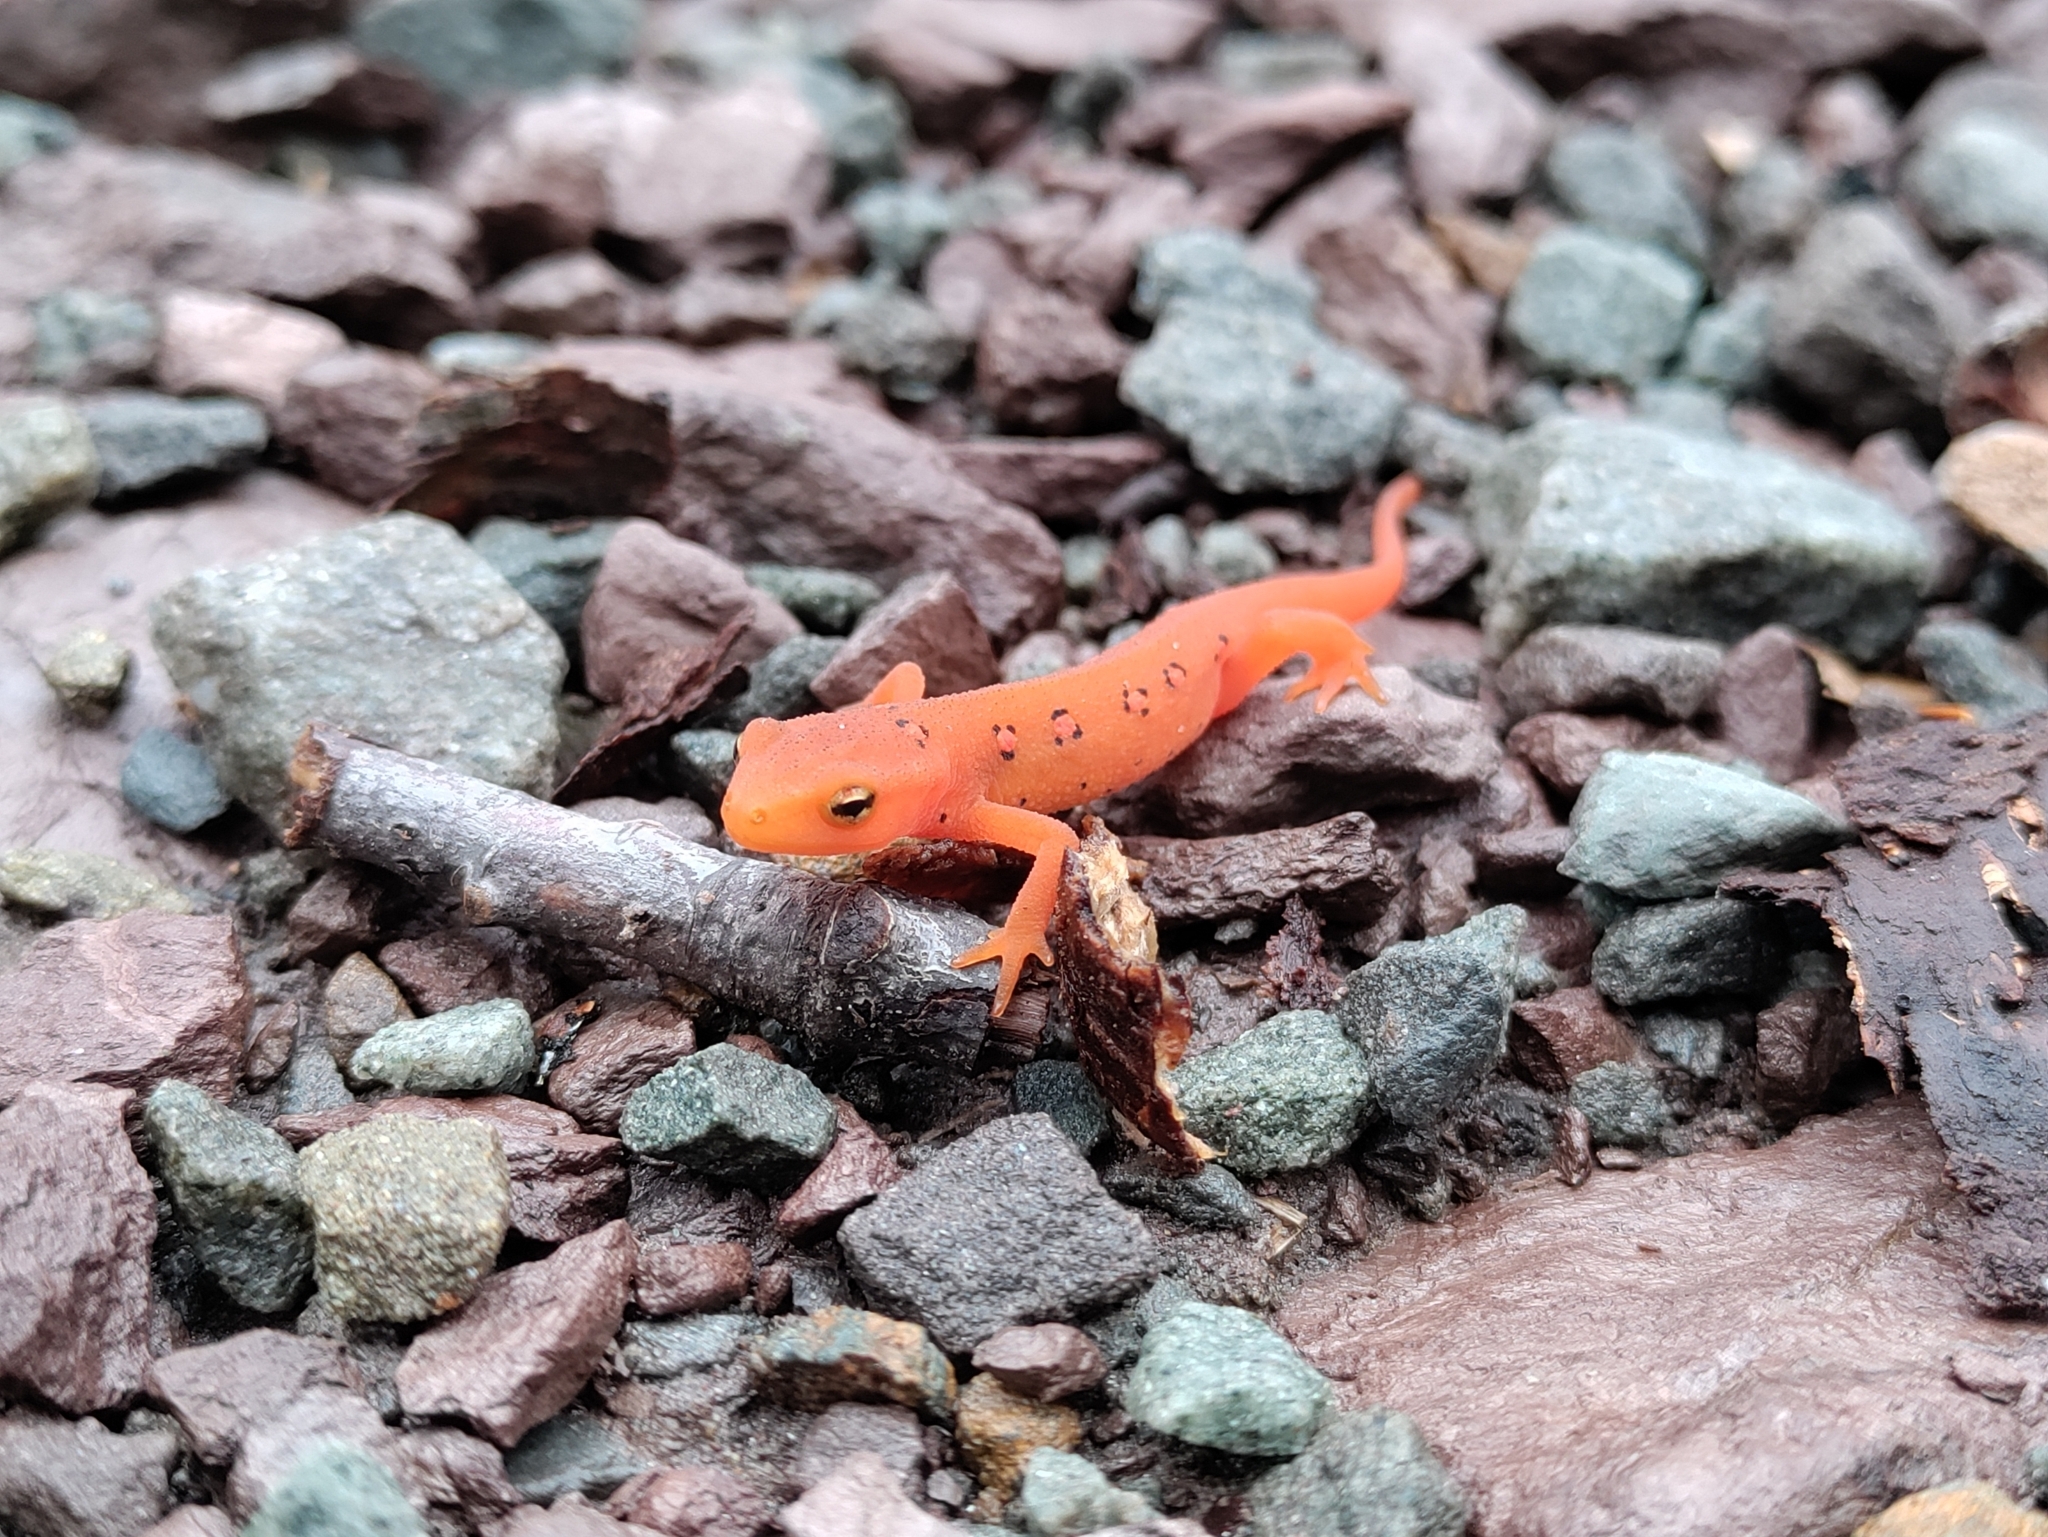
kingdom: Animalia
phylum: Chordata
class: Amphibia
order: Caudata
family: Salamandridae
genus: Notophthalmus
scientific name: Notophthalmus viridescens
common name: Eastern newt
